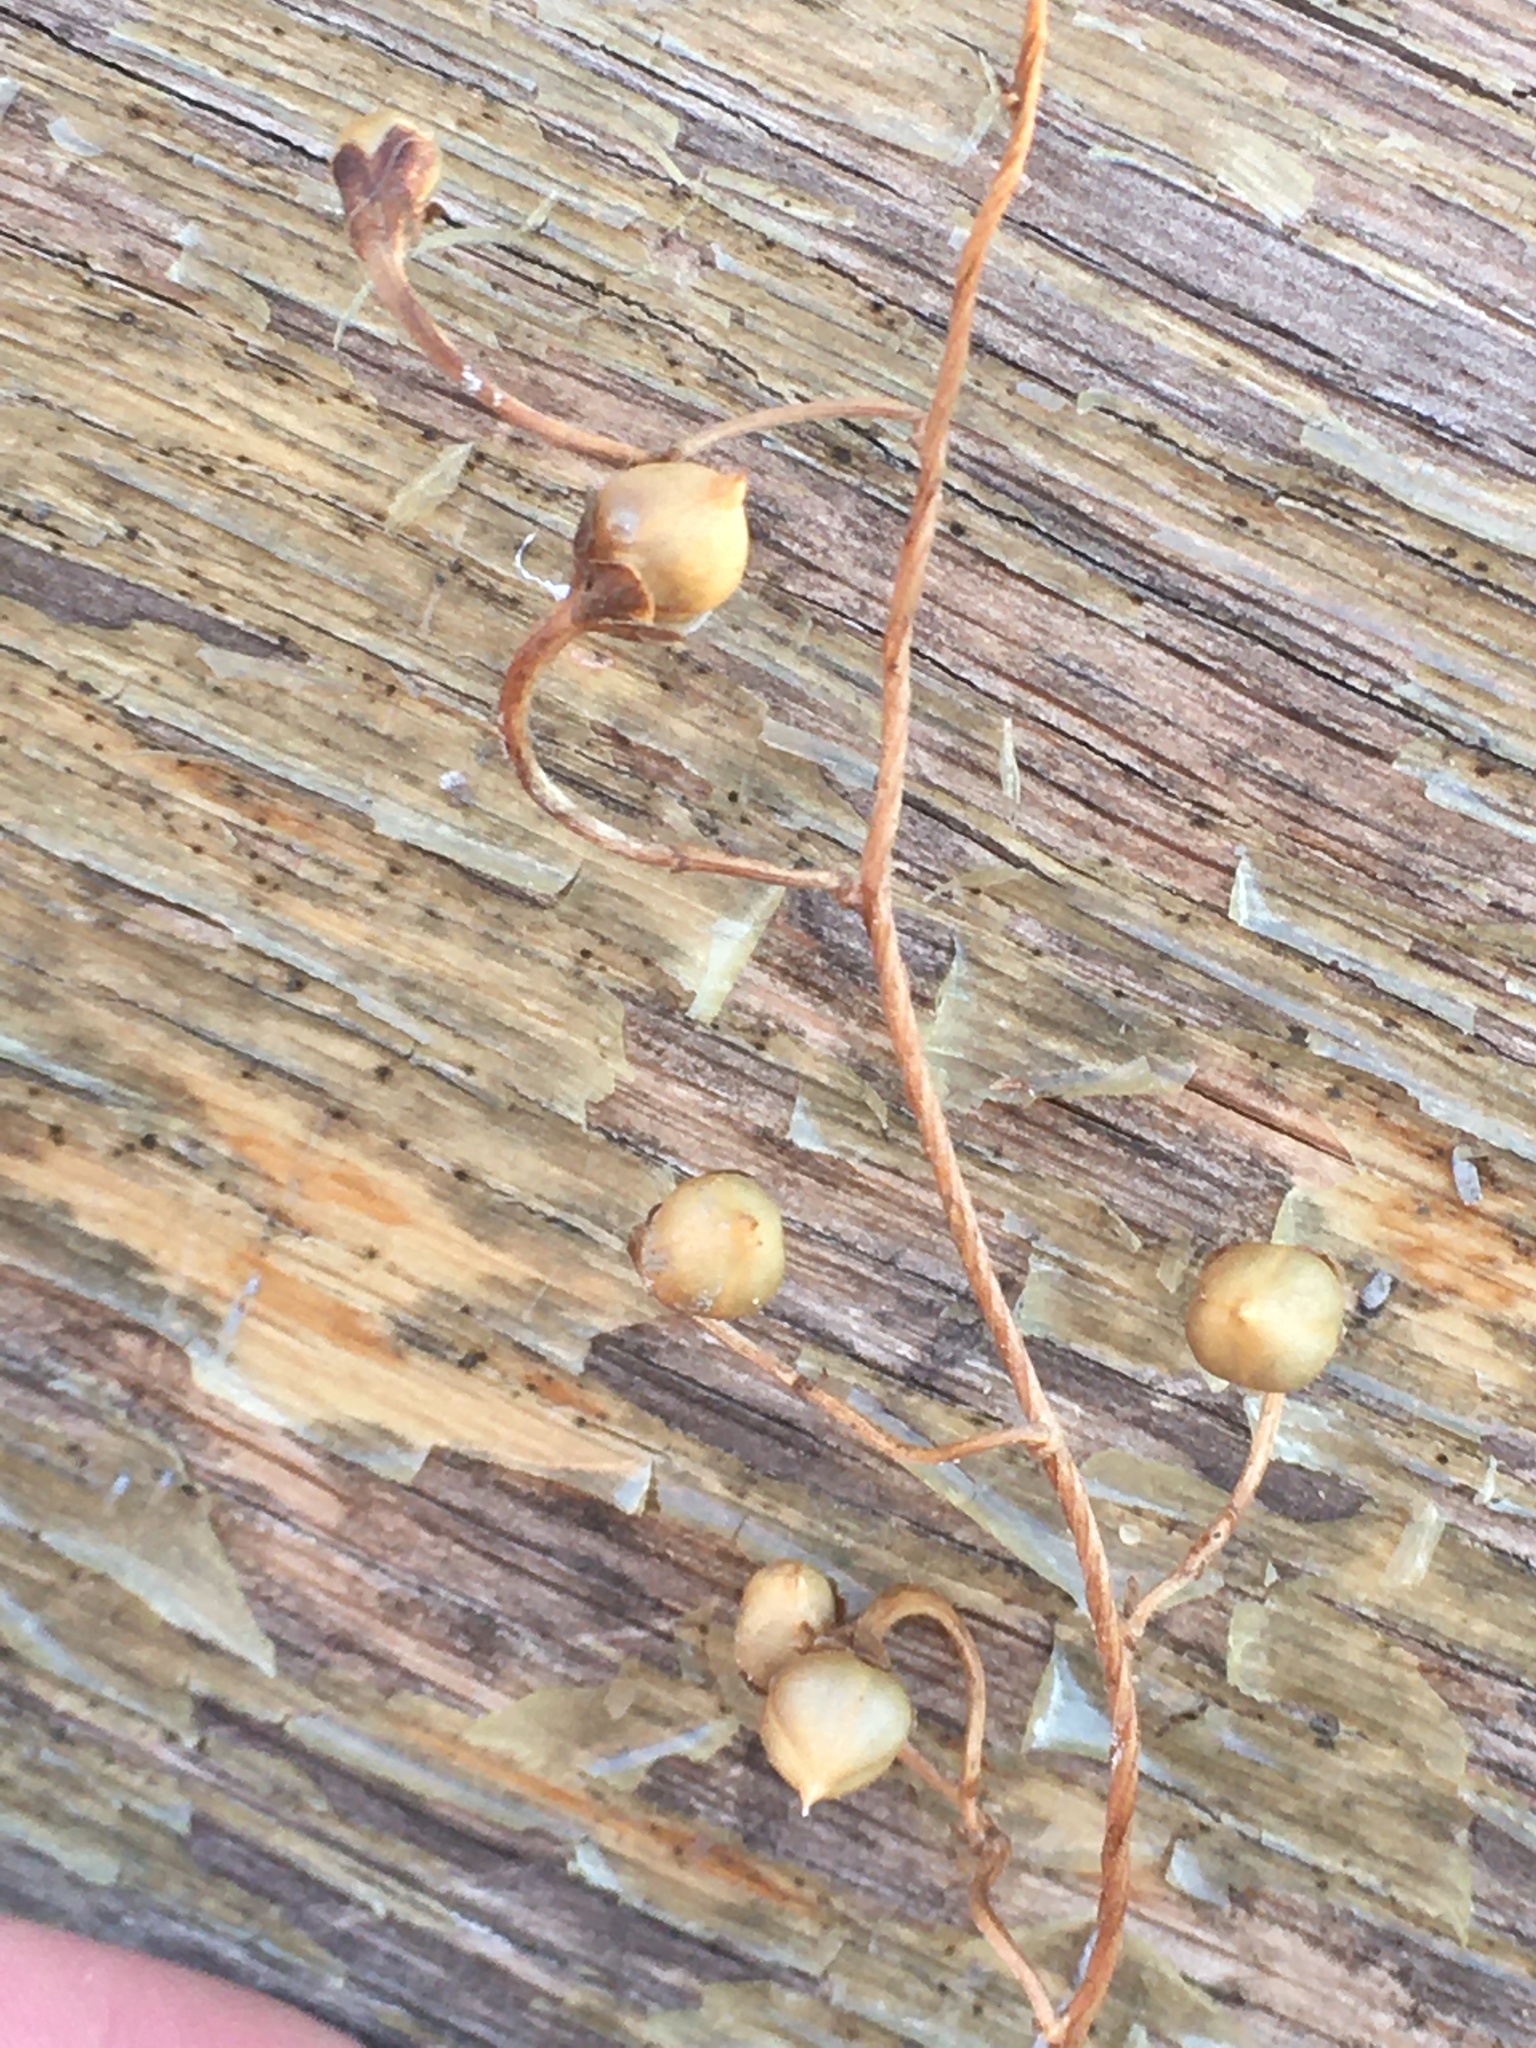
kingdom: Plantae
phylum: Tracheophyta
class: Magnoliopsida
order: Solanales
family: Convolvulaceae
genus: Convolvulus
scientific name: Convolvulus arvensis
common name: Field bindweed
